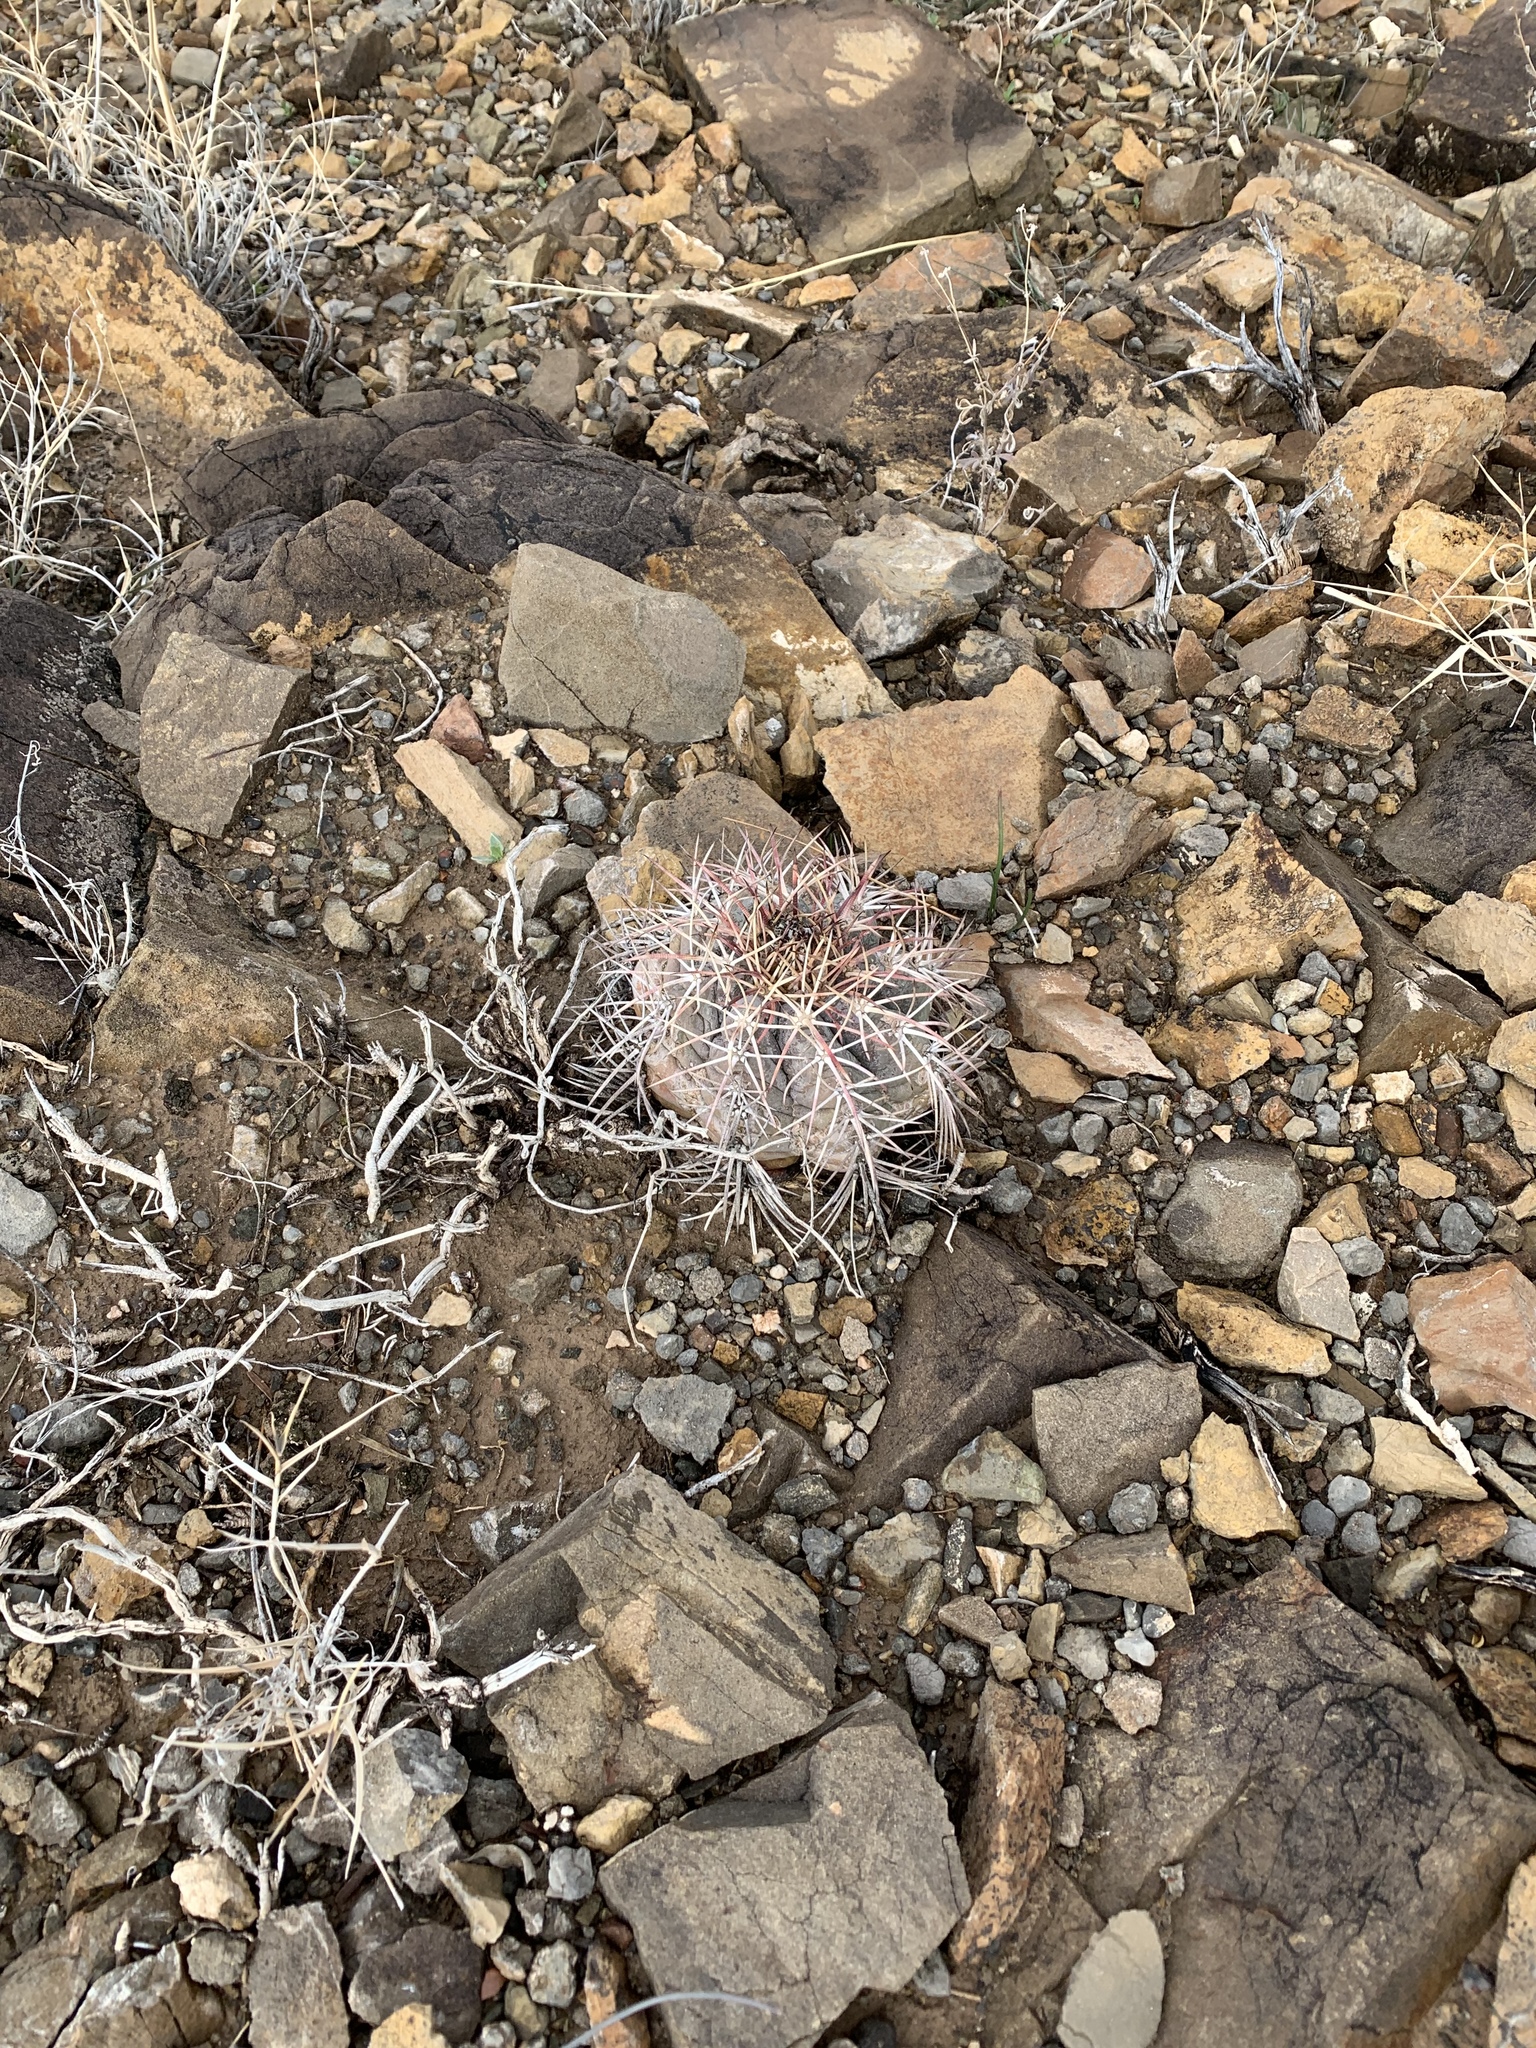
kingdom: Plantae
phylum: Tracheophyta
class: Magnoliopsida
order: Caryophyllales
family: Cactaceae
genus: Echinocactus
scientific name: Echinocactus horizonthalonius
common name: Devilshead
